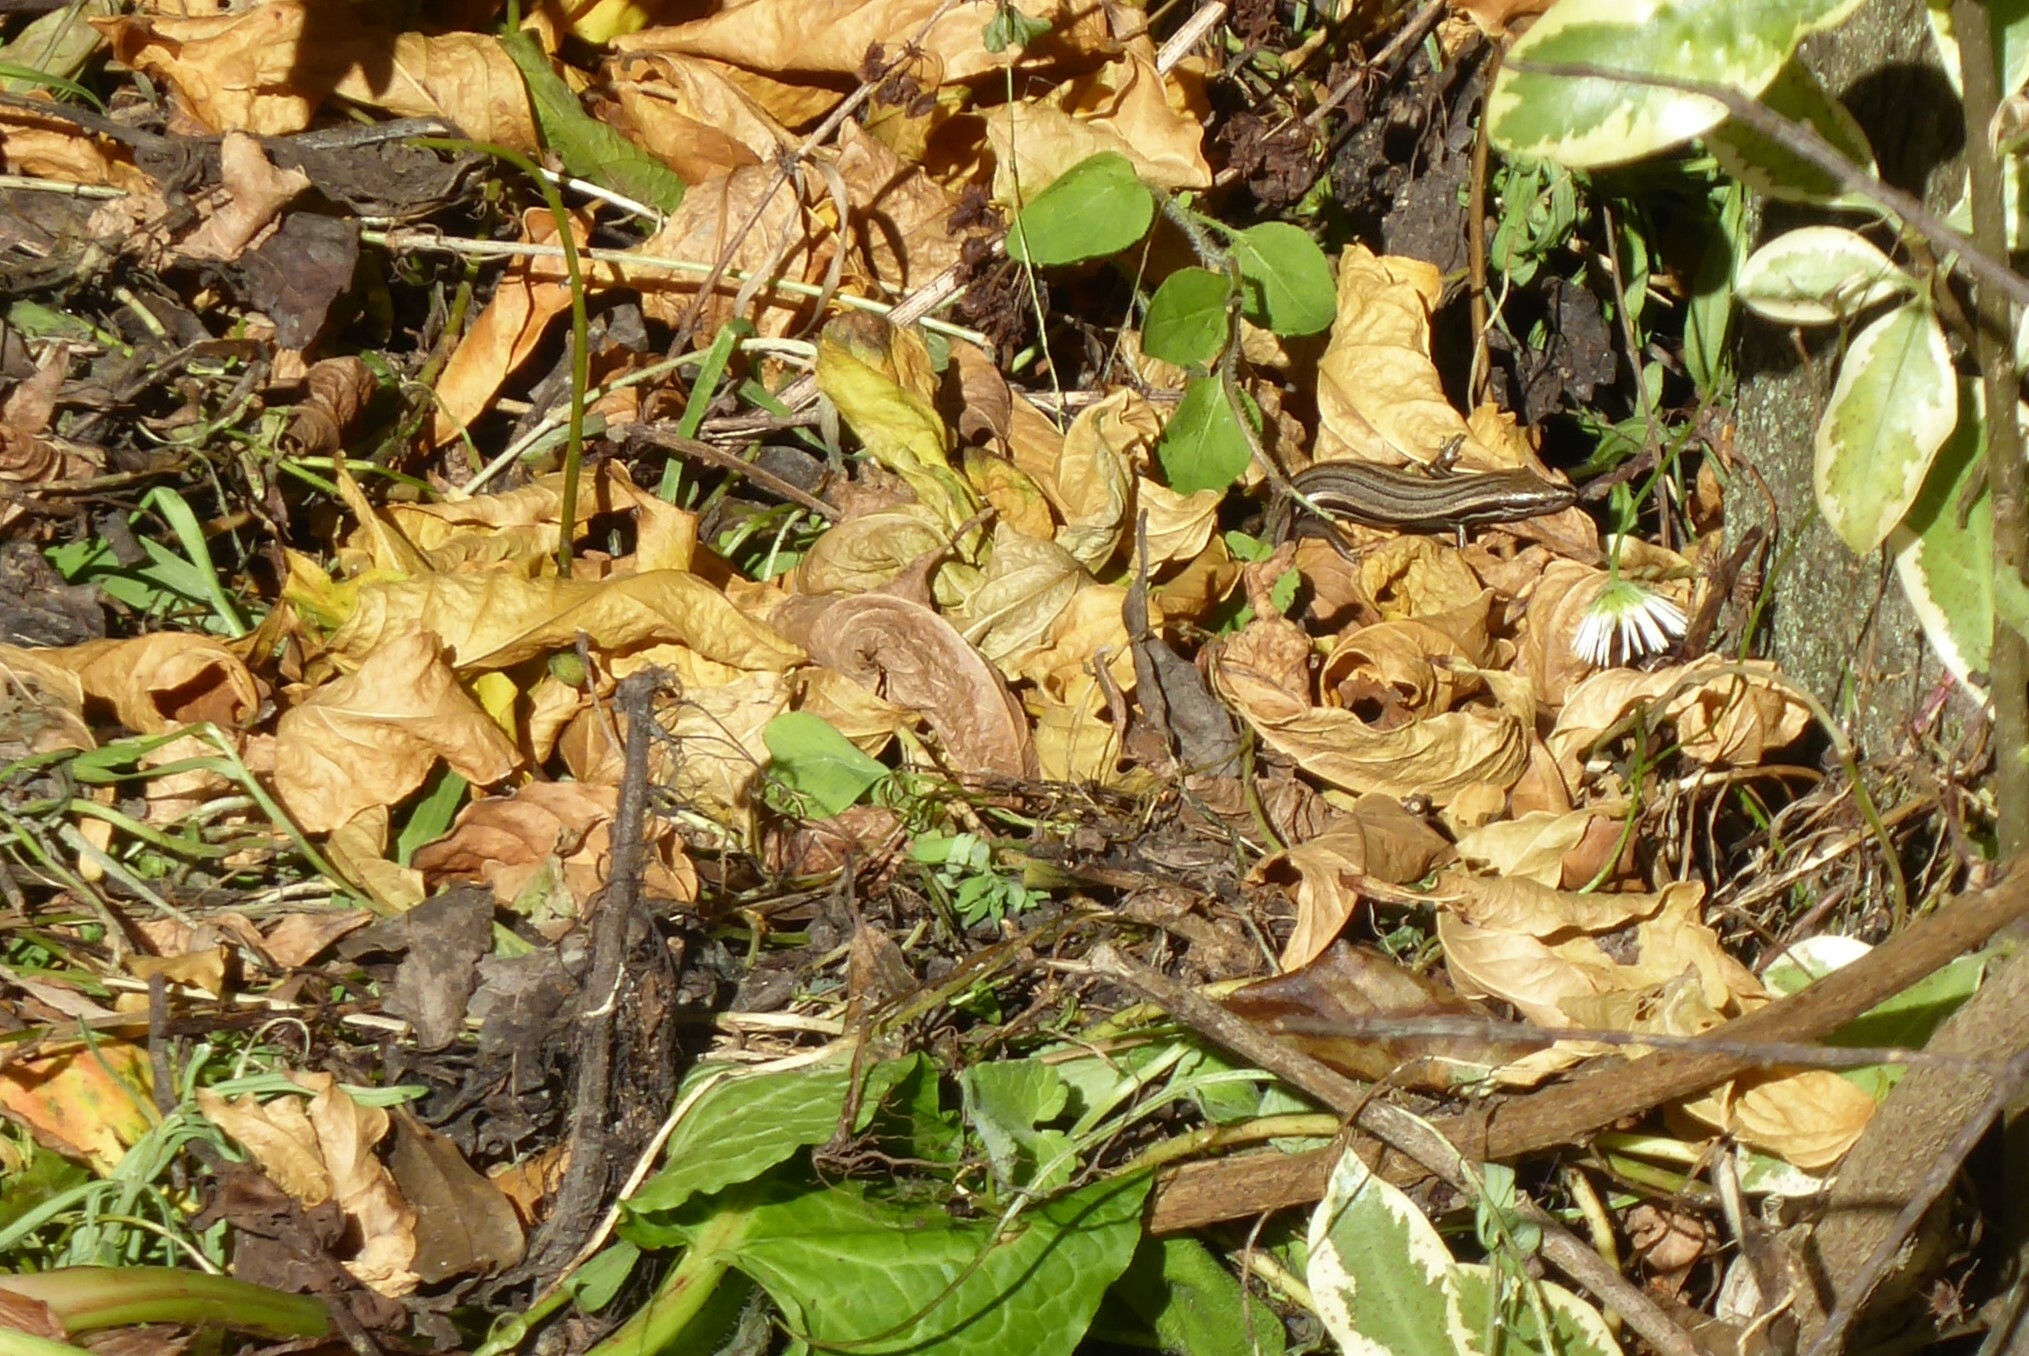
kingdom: Animalia
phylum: Chordata
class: Squamata
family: Scincidae
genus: Oligosoma
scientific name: Oligosoma polychroma
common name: Common new zealand skink
